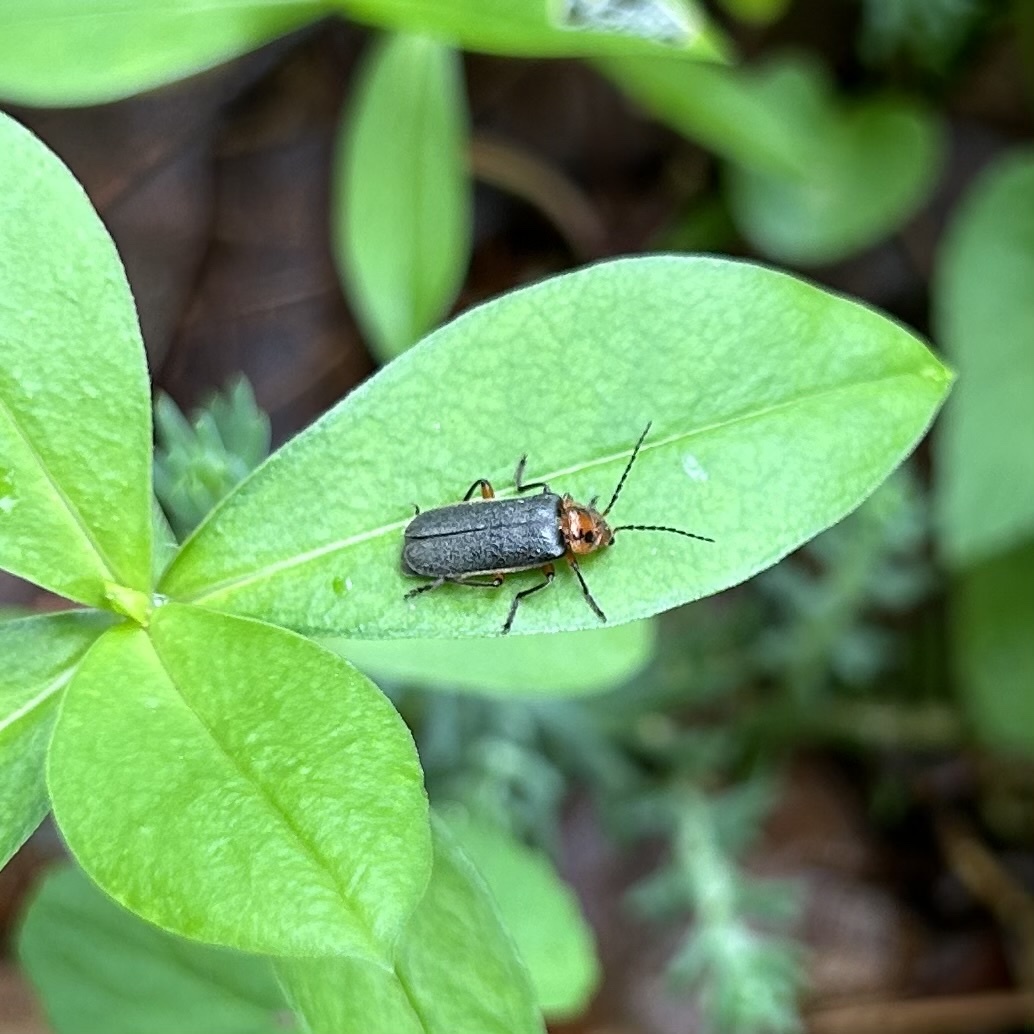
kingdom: Animalia
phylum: Arthropoda
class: Insecta
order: Coleoptera
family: Cantharidae
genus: Atalantycha
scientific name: Atalantycha bilineata
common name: Two-lined leatherwing
